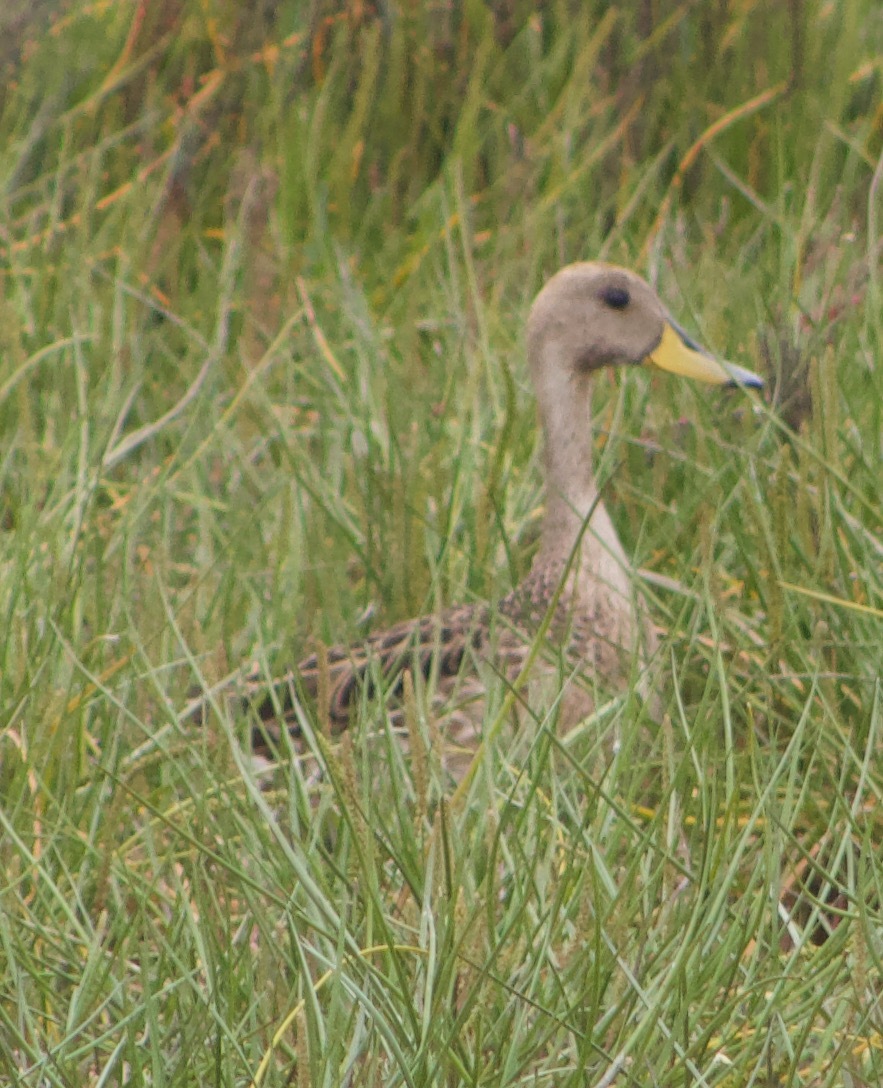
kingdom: Animalia
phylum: Chordata
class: Aves
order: Anseriformes
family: Anatidae
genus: Anas
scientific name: Anas georgica
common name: Yellow-billed pintail
